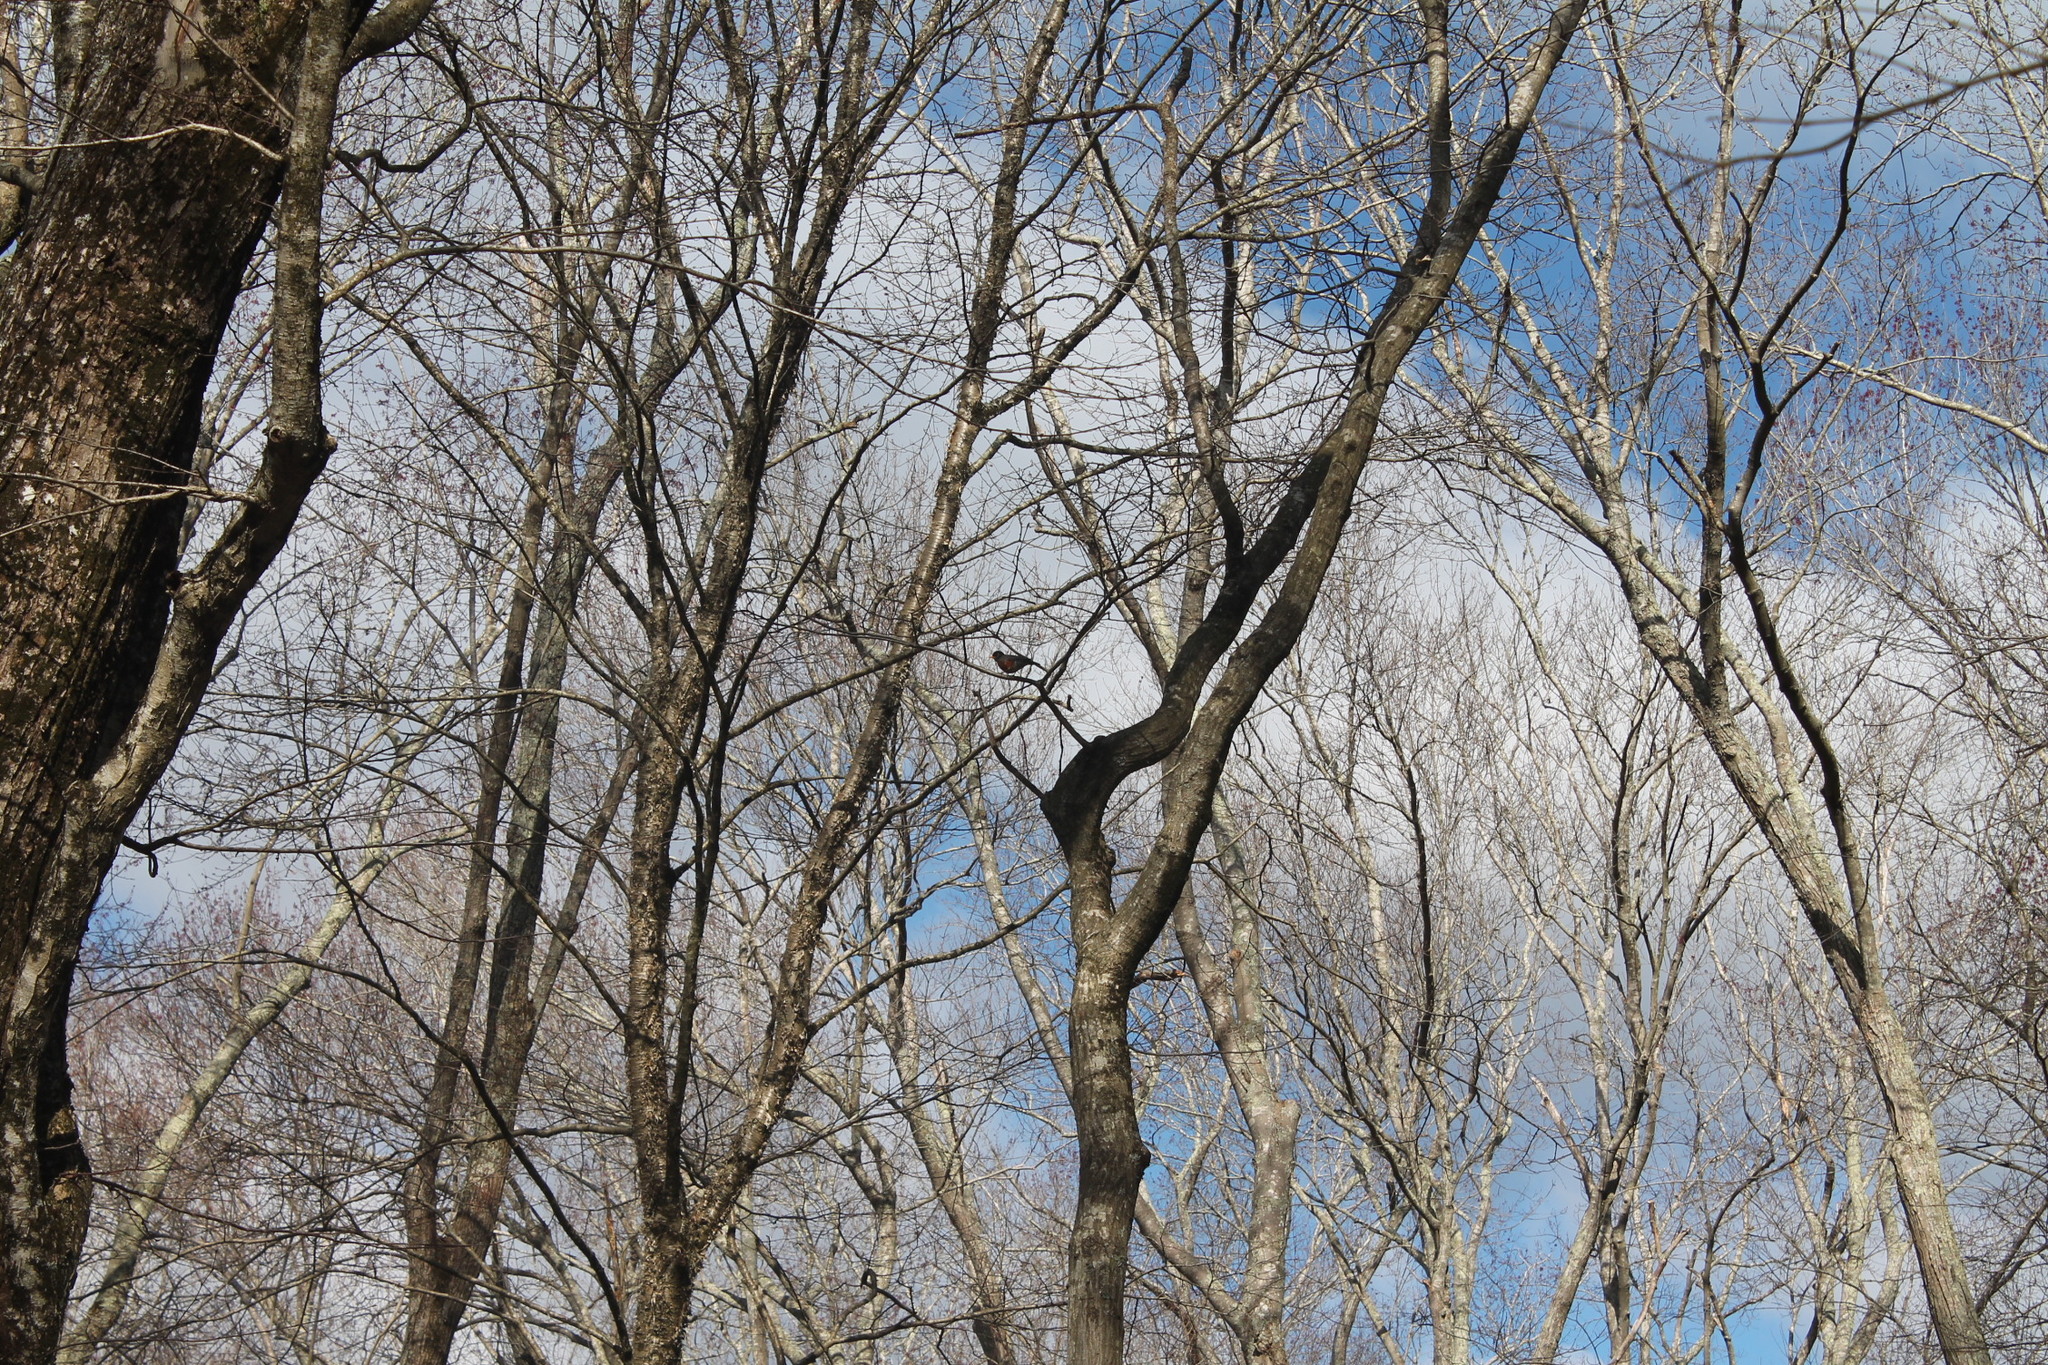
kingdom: Animalia
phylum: Chordata
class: Aves
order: Passeriformes
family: Turdidae
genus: Turdus
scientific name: Turdus migratorius
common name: American robin
